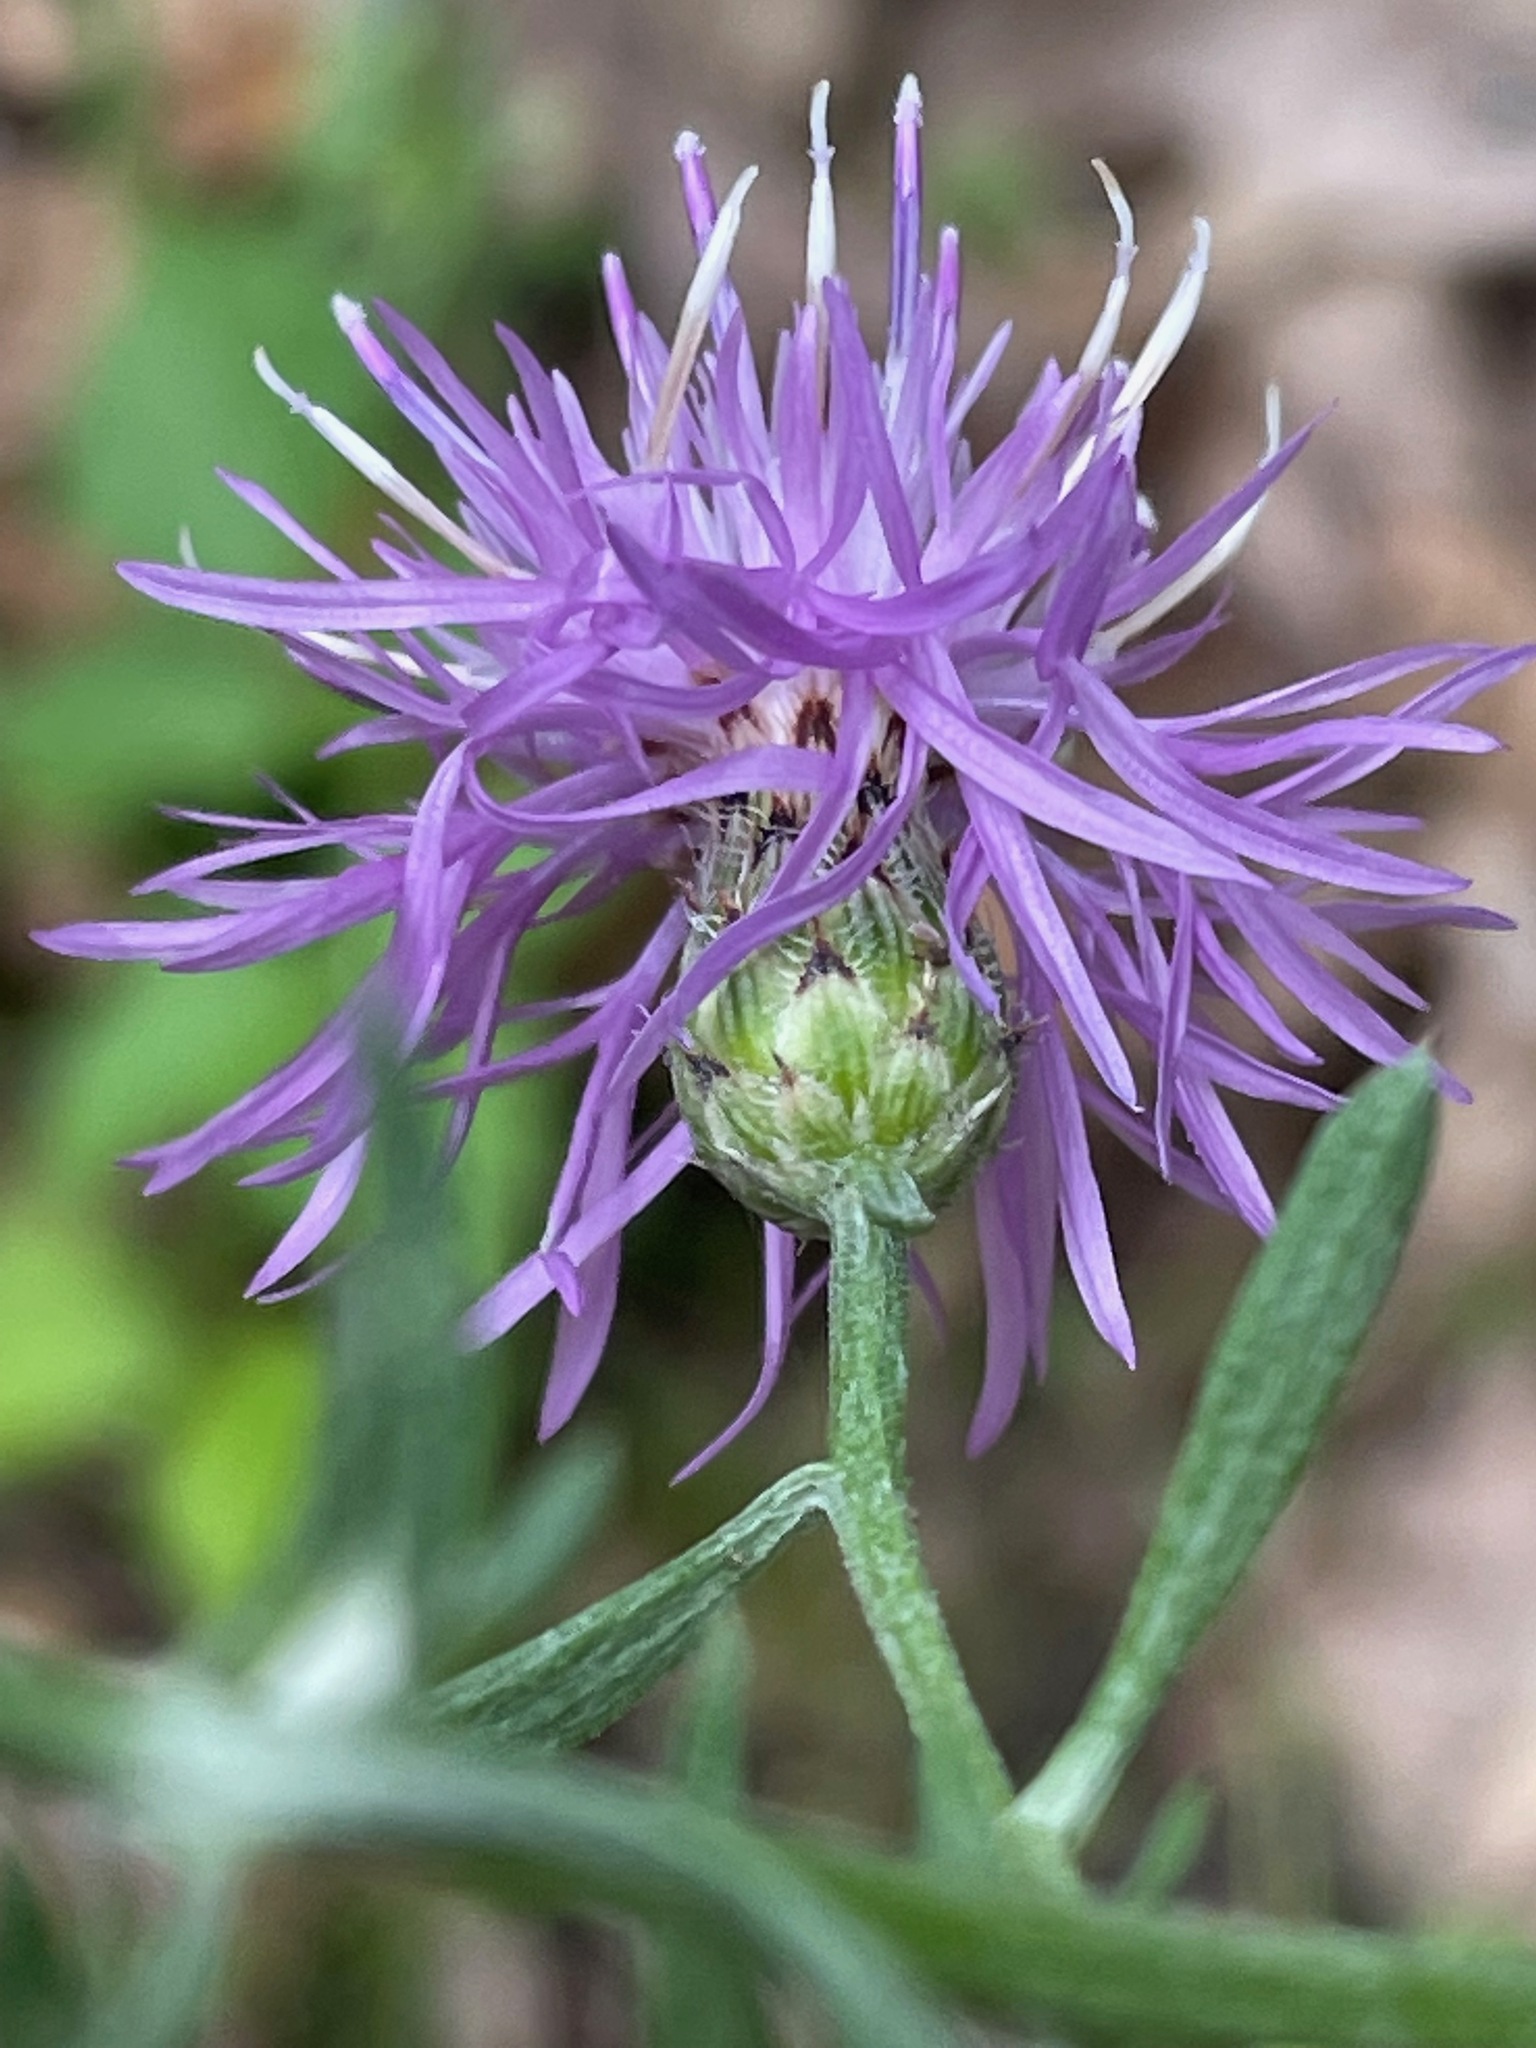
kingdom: Plantae
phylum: Tracheophyta
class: Magnoliopsida
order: Asterales
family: Asteraceae
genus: Centaurea
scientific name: Centaurea stoebe
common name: Spotted knapweed
